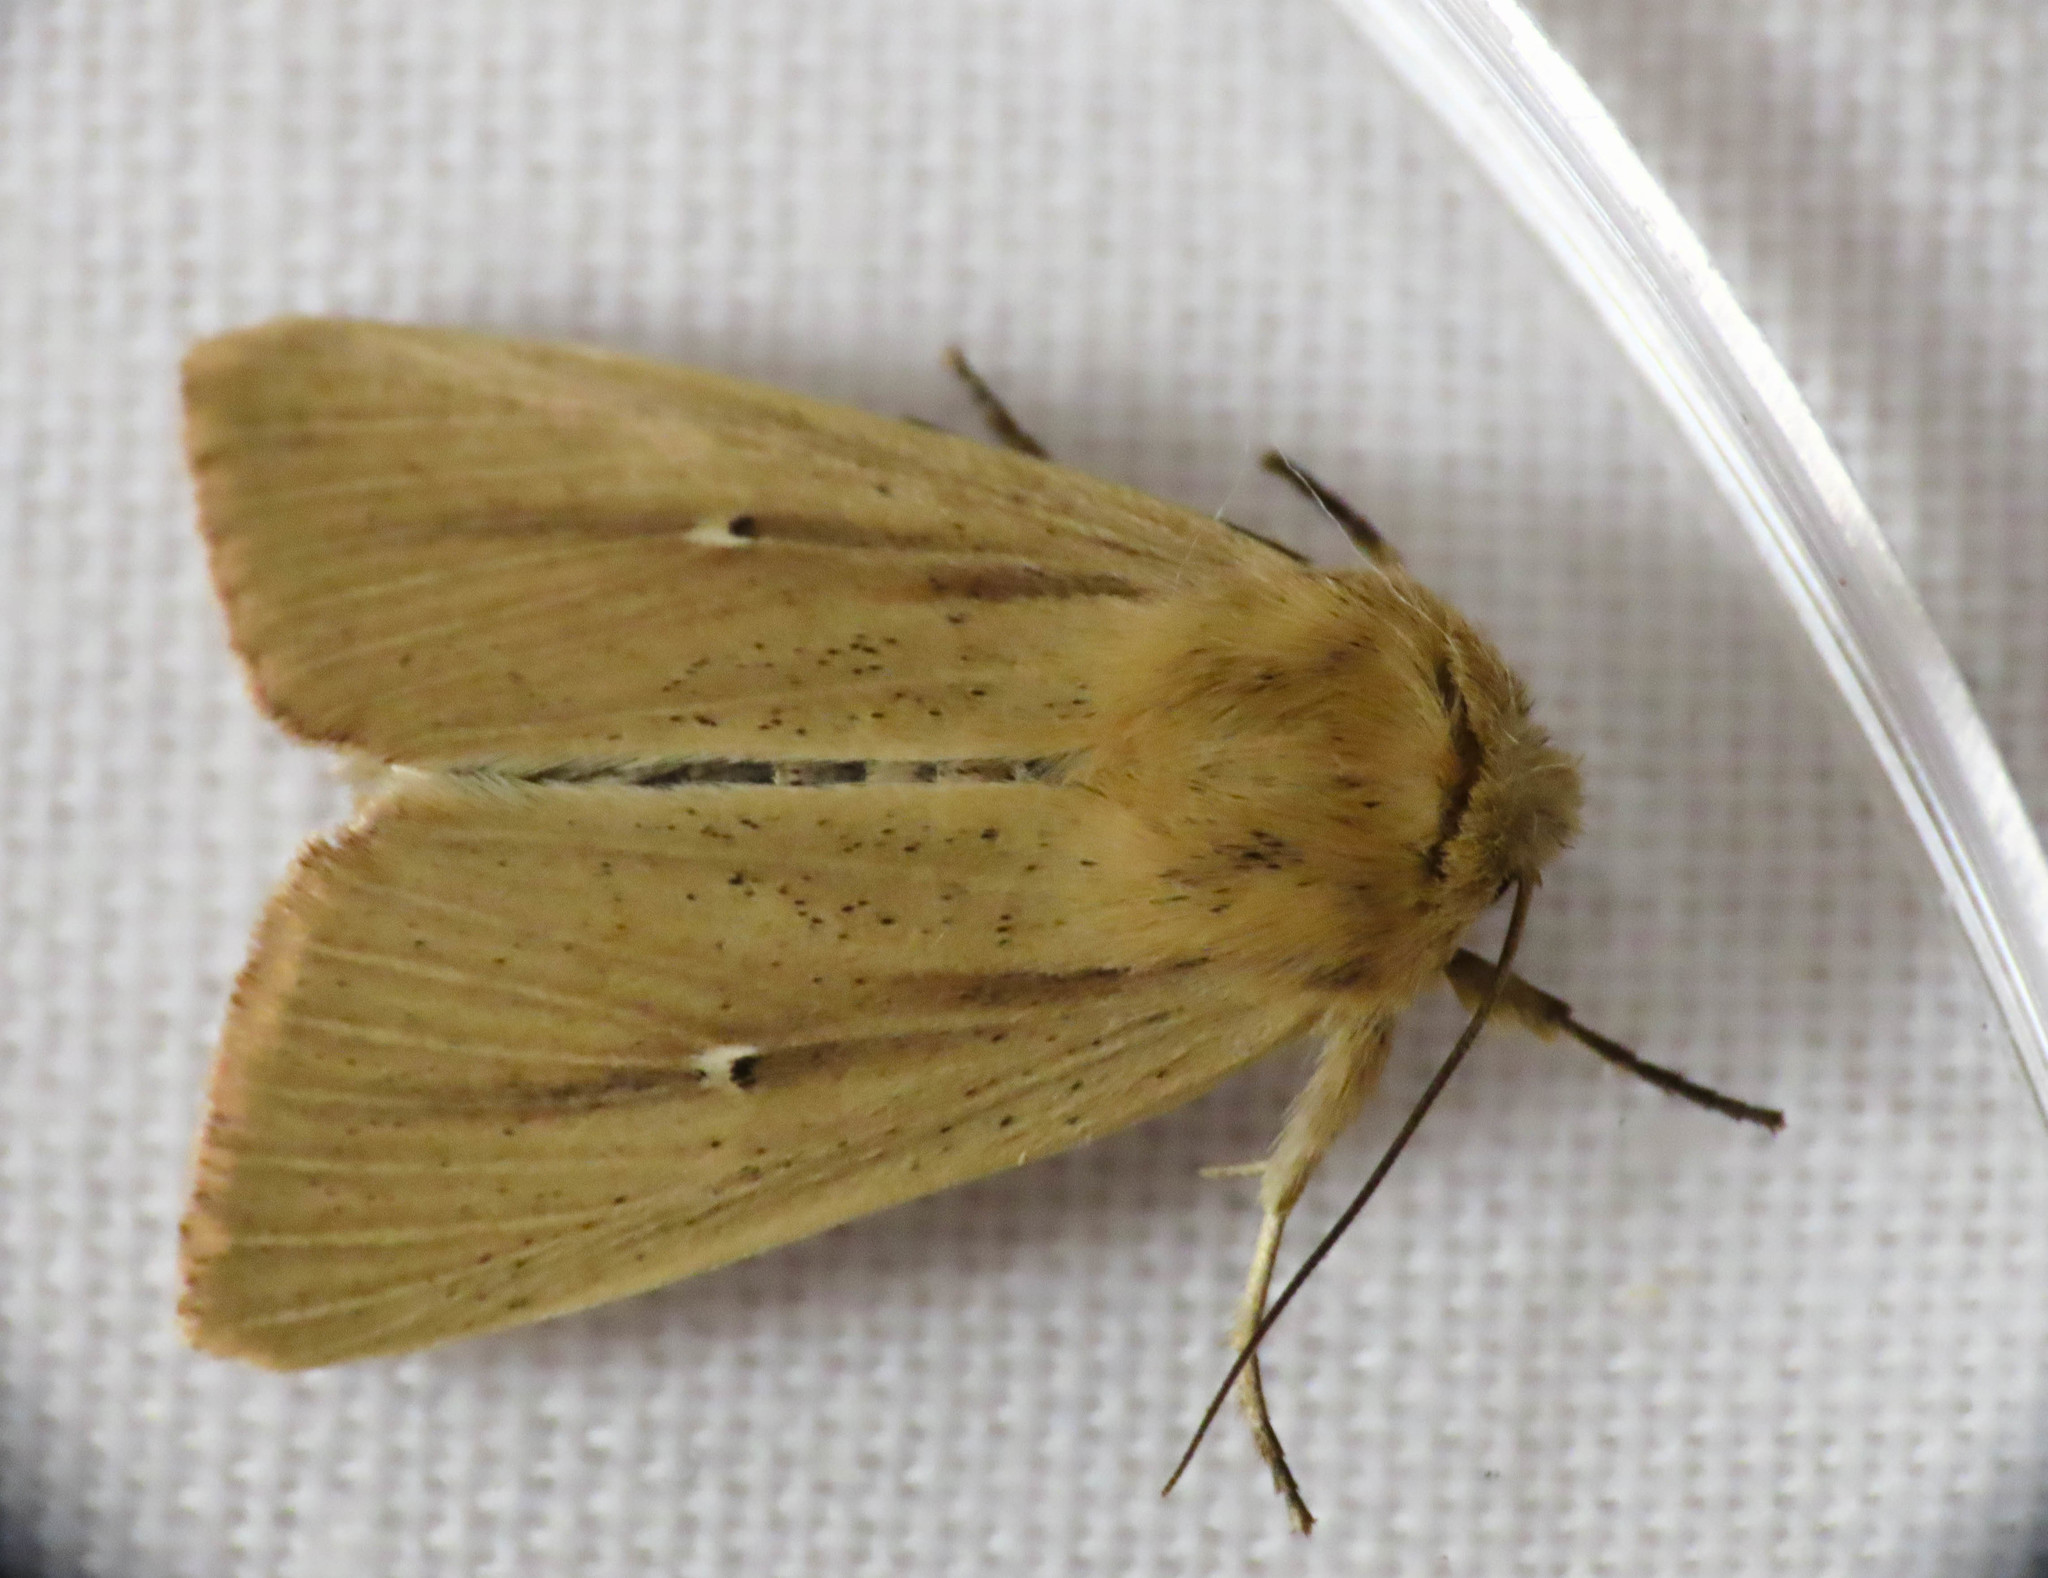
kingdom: Animalia
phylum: Arthropoda
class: Insecta
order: Lepidoptera
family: Noctuidae
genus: Mythimna
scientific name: Mythimna sicula
